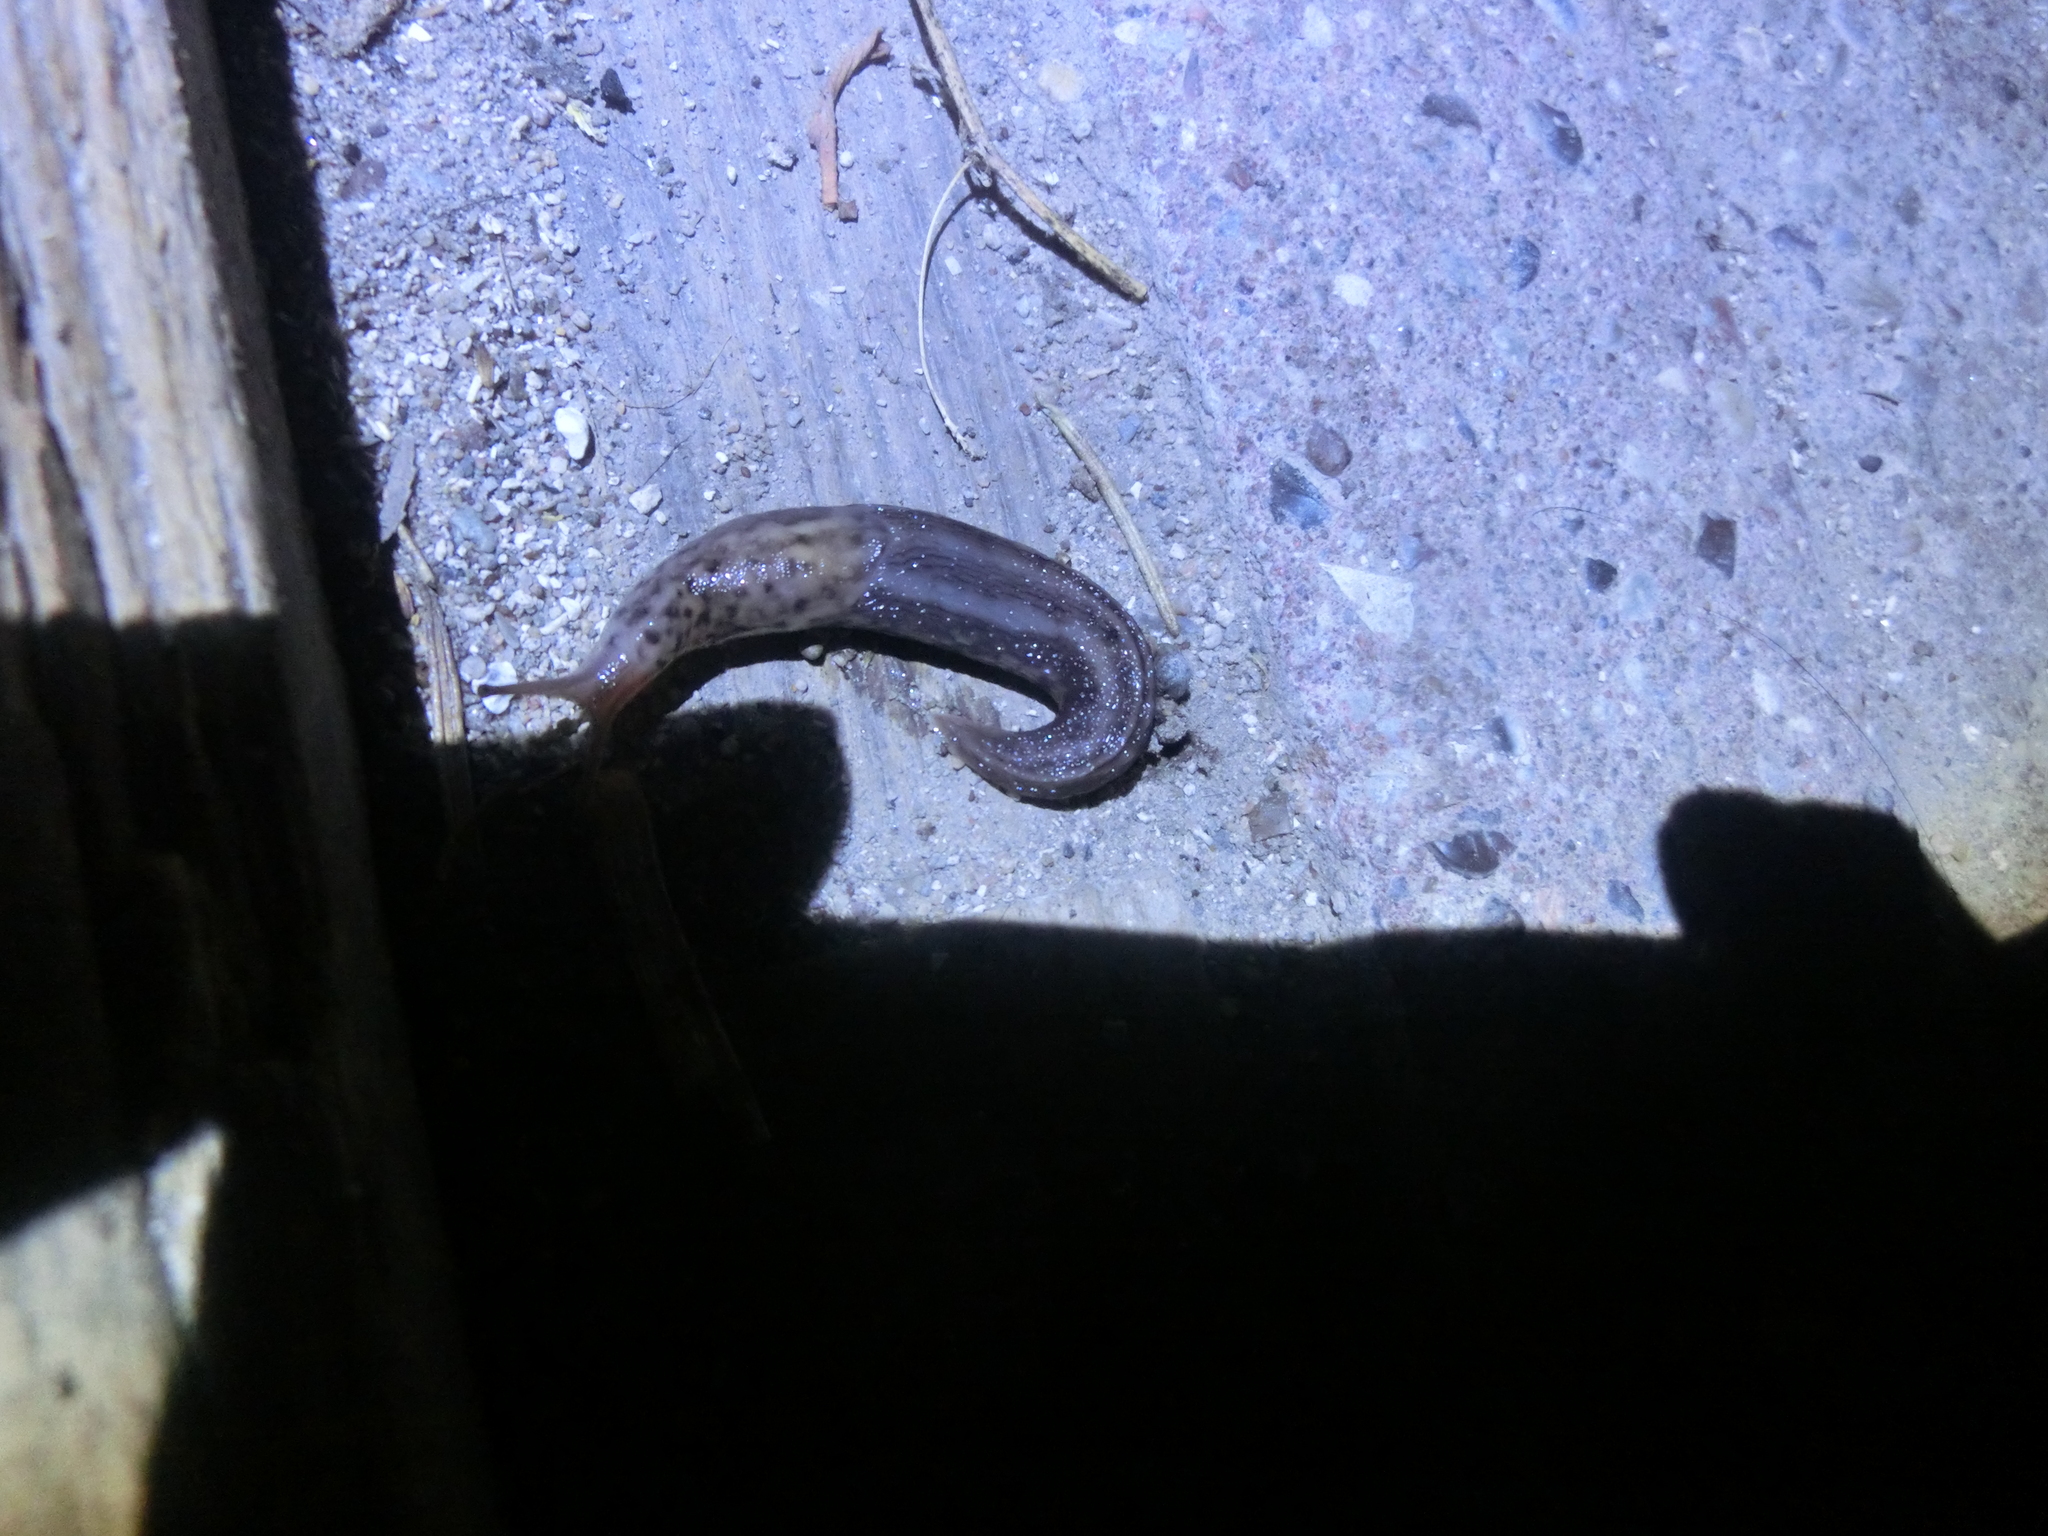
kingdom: Animalia
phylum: Mollusca
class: Gastropoda
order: Stylommatophora
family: Limacidae
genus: Limax
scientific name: Limax maximus
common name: Great grey slug
